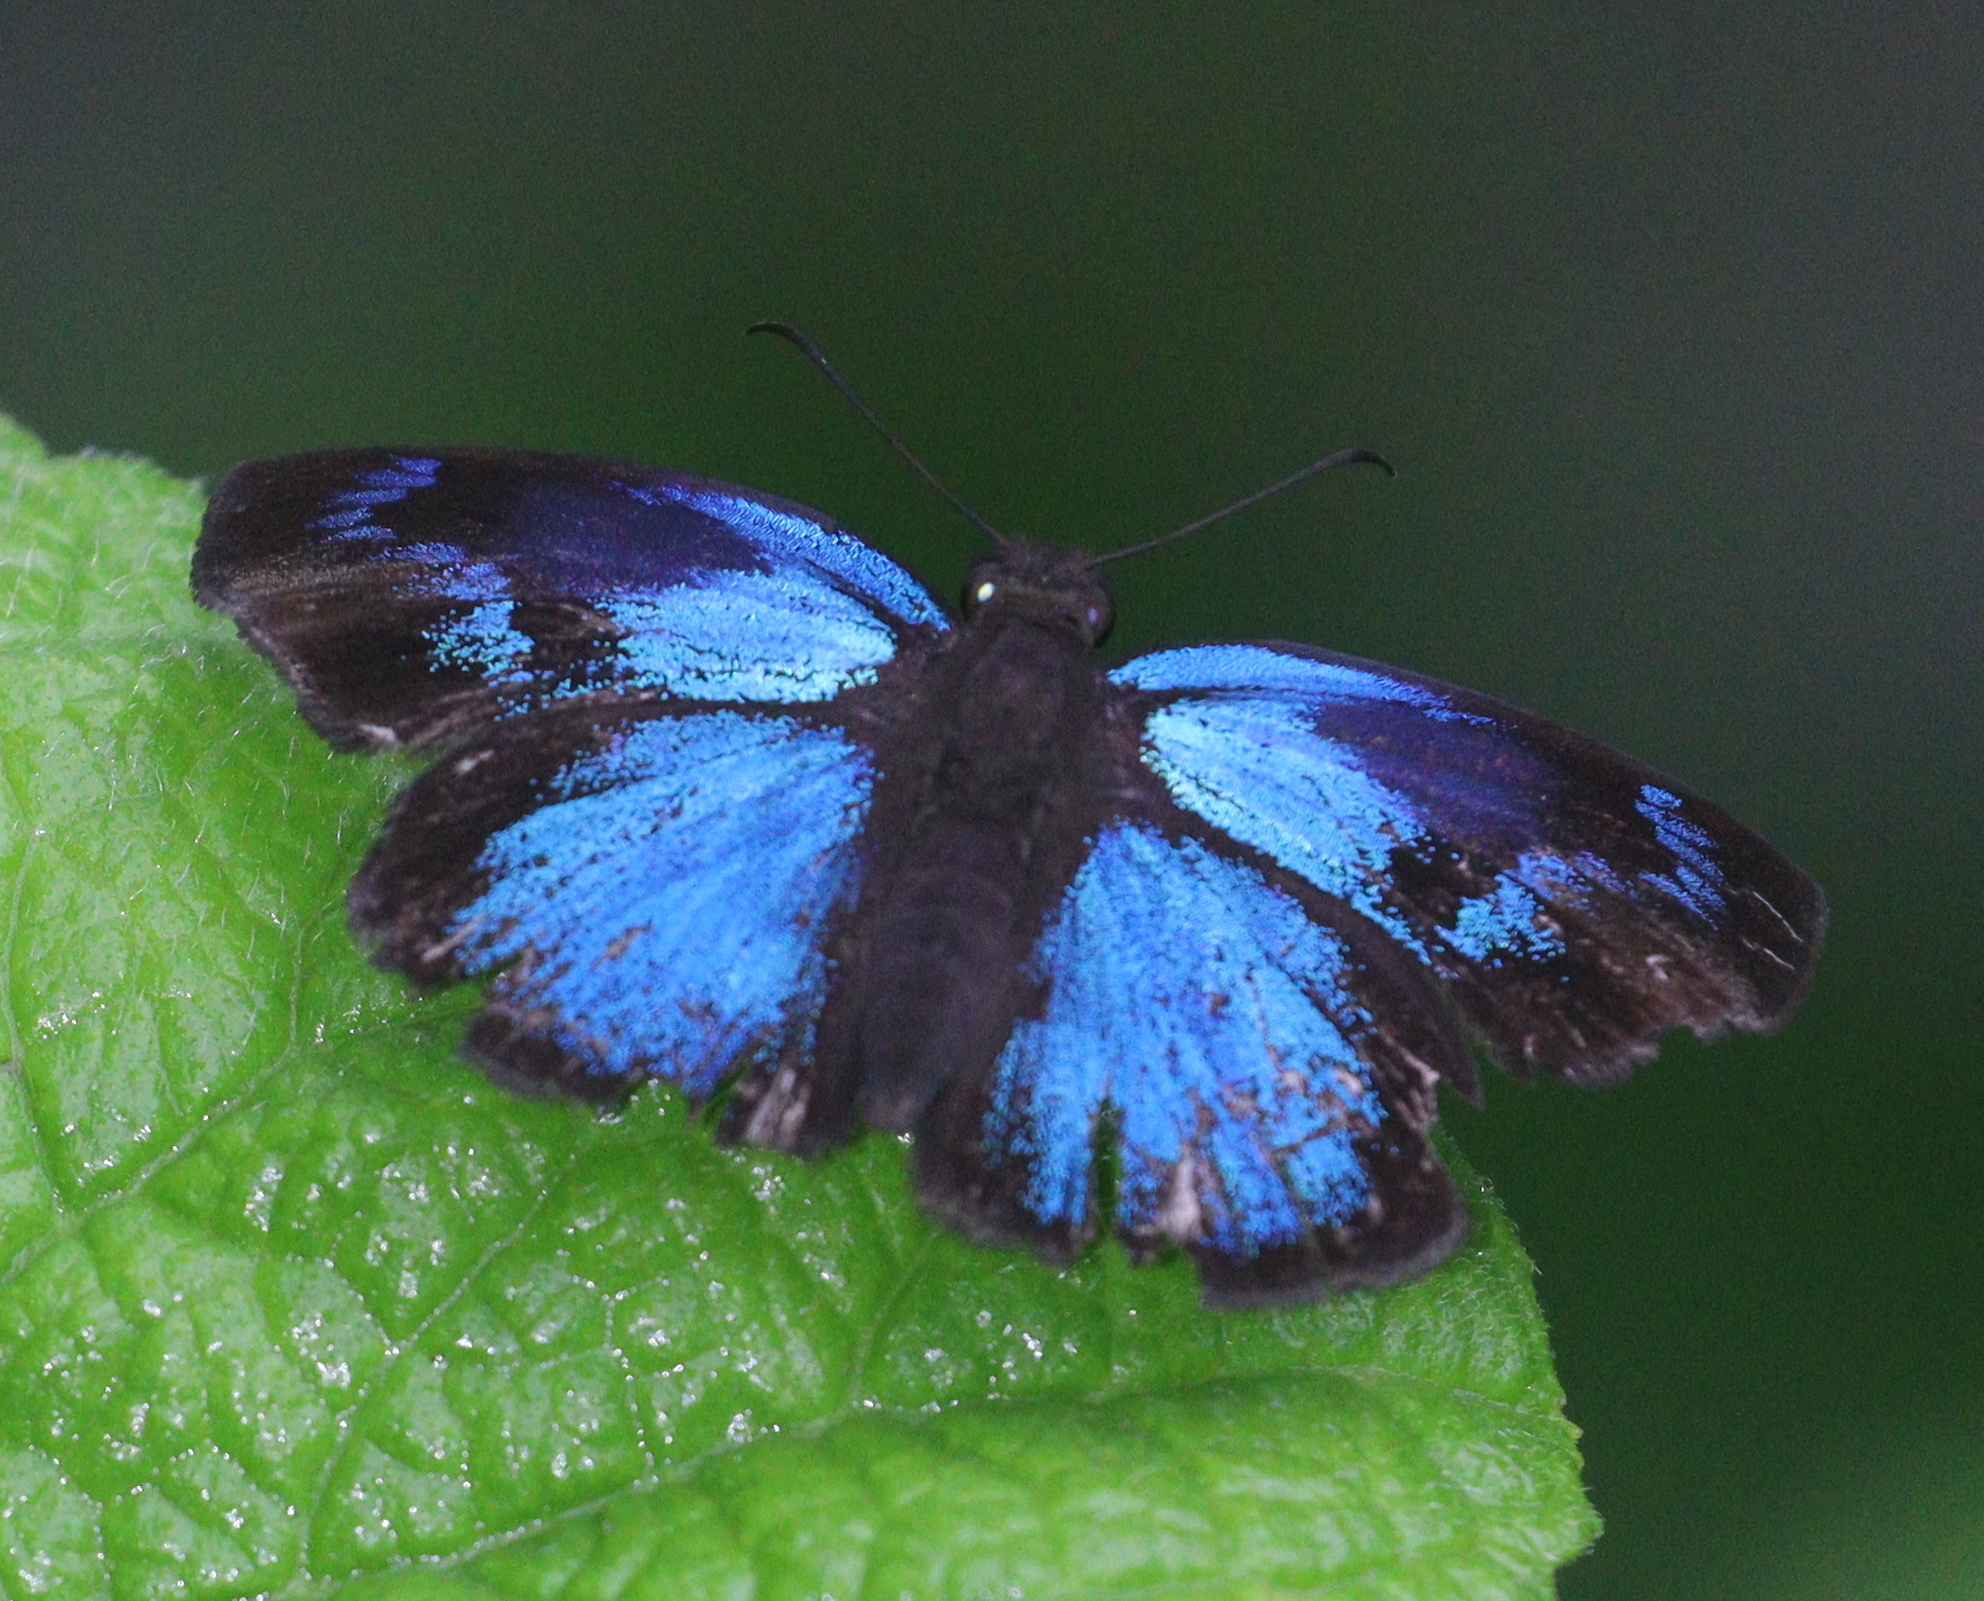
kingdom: Animalia
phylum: Arthropoda
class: Insecta
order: Lepidoptera
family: Hesperiidae
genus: Paches
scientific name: Paches loxus
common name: Glorious blue-skipper
